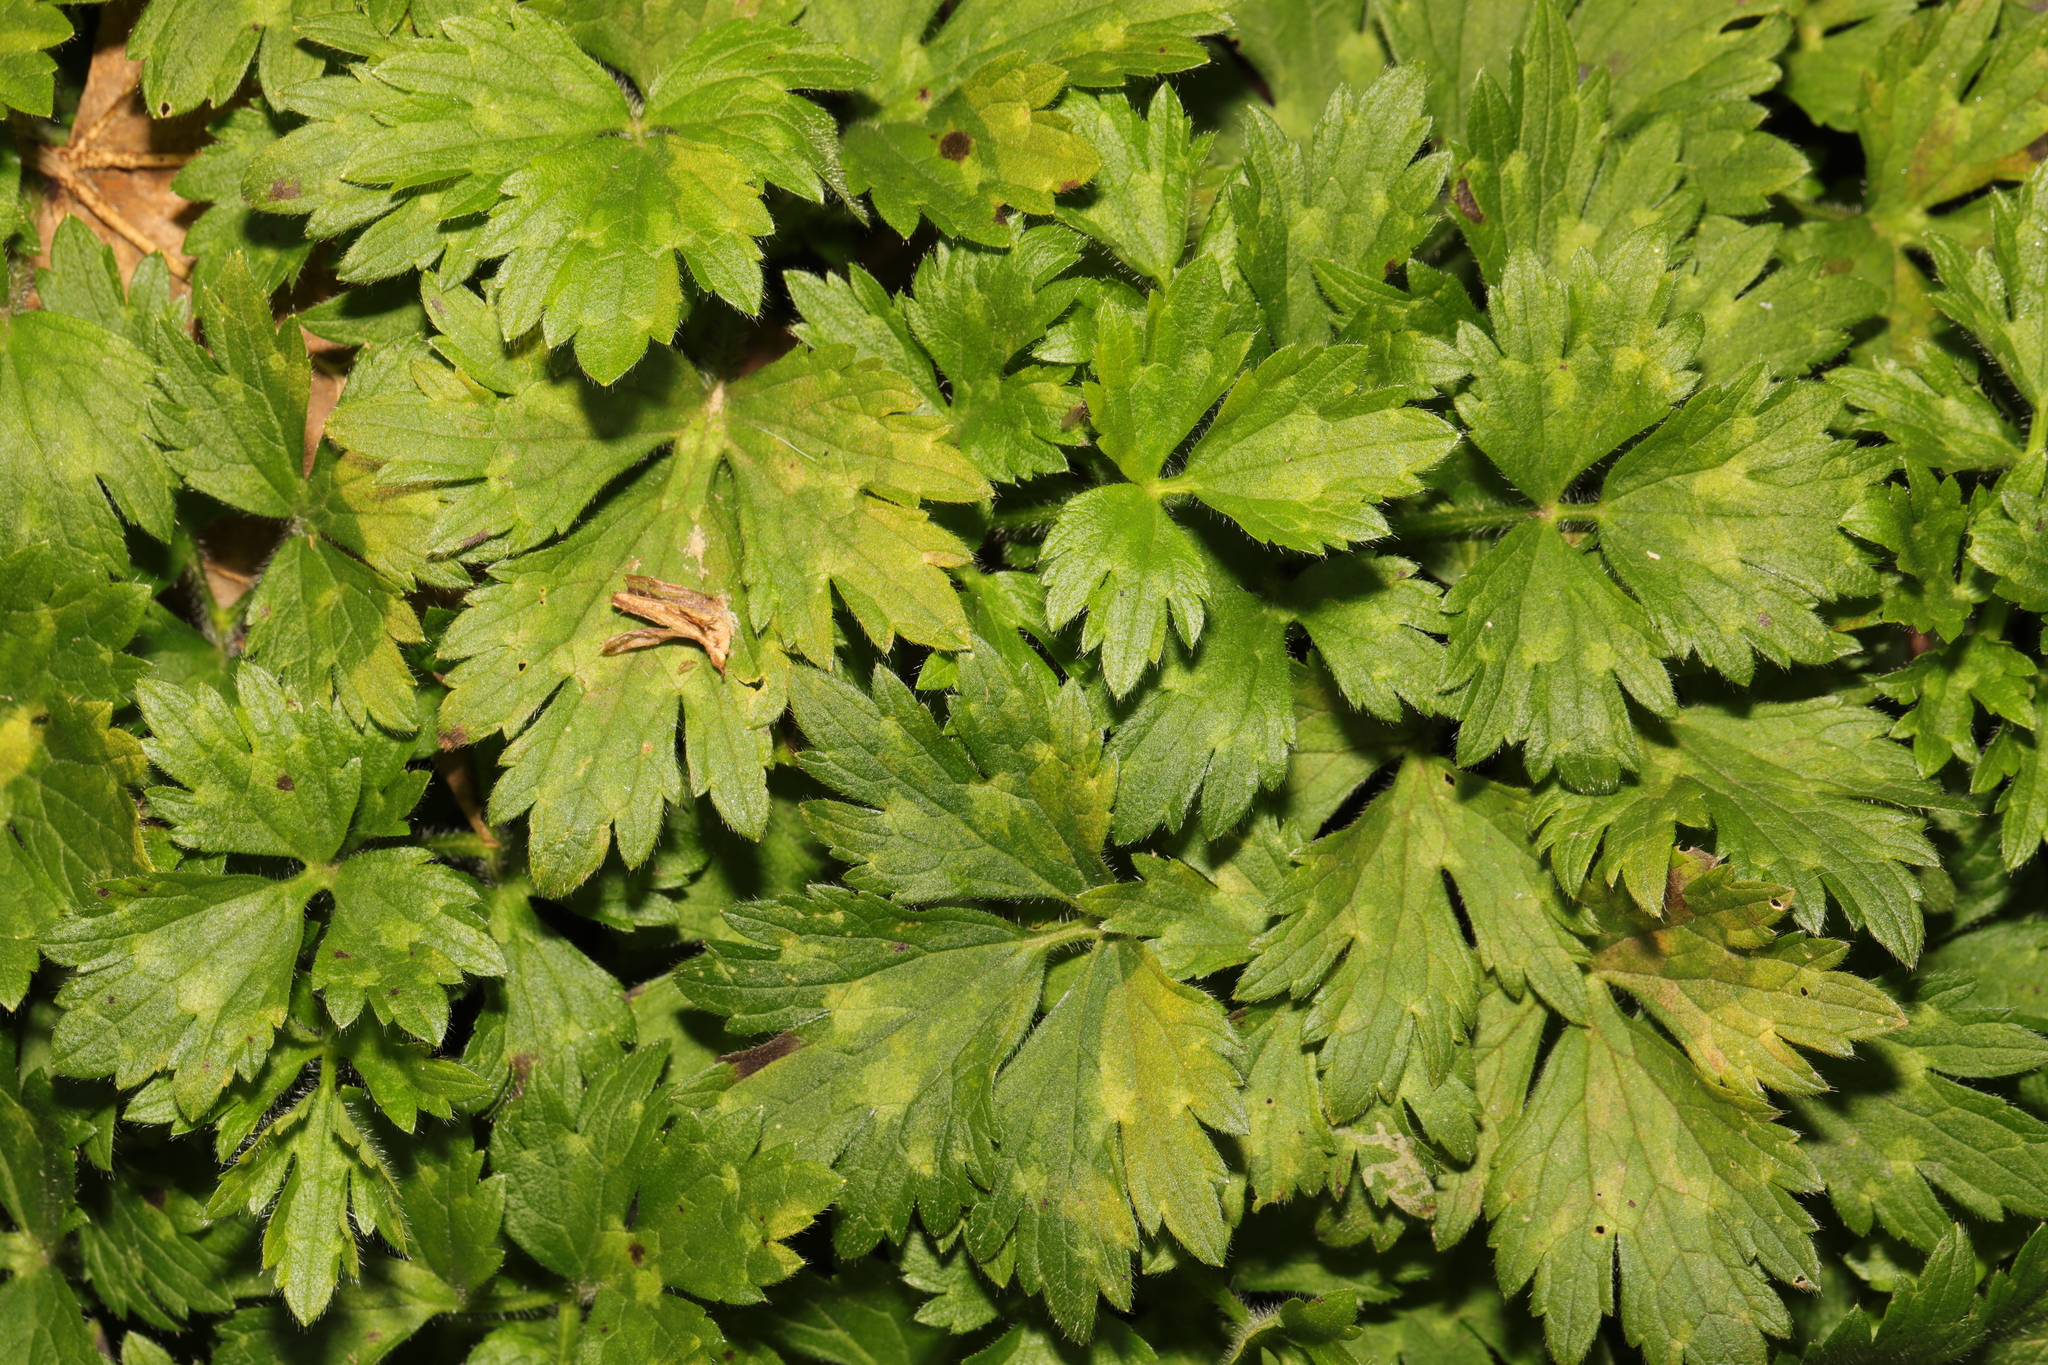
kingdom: Plantae
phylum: Tracheophyta
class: Magnoliopsida
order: Ranunculales
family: Ranunculaceae
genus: Ranunculus
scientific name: Ranunculus repens
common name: Creeping buttercup
